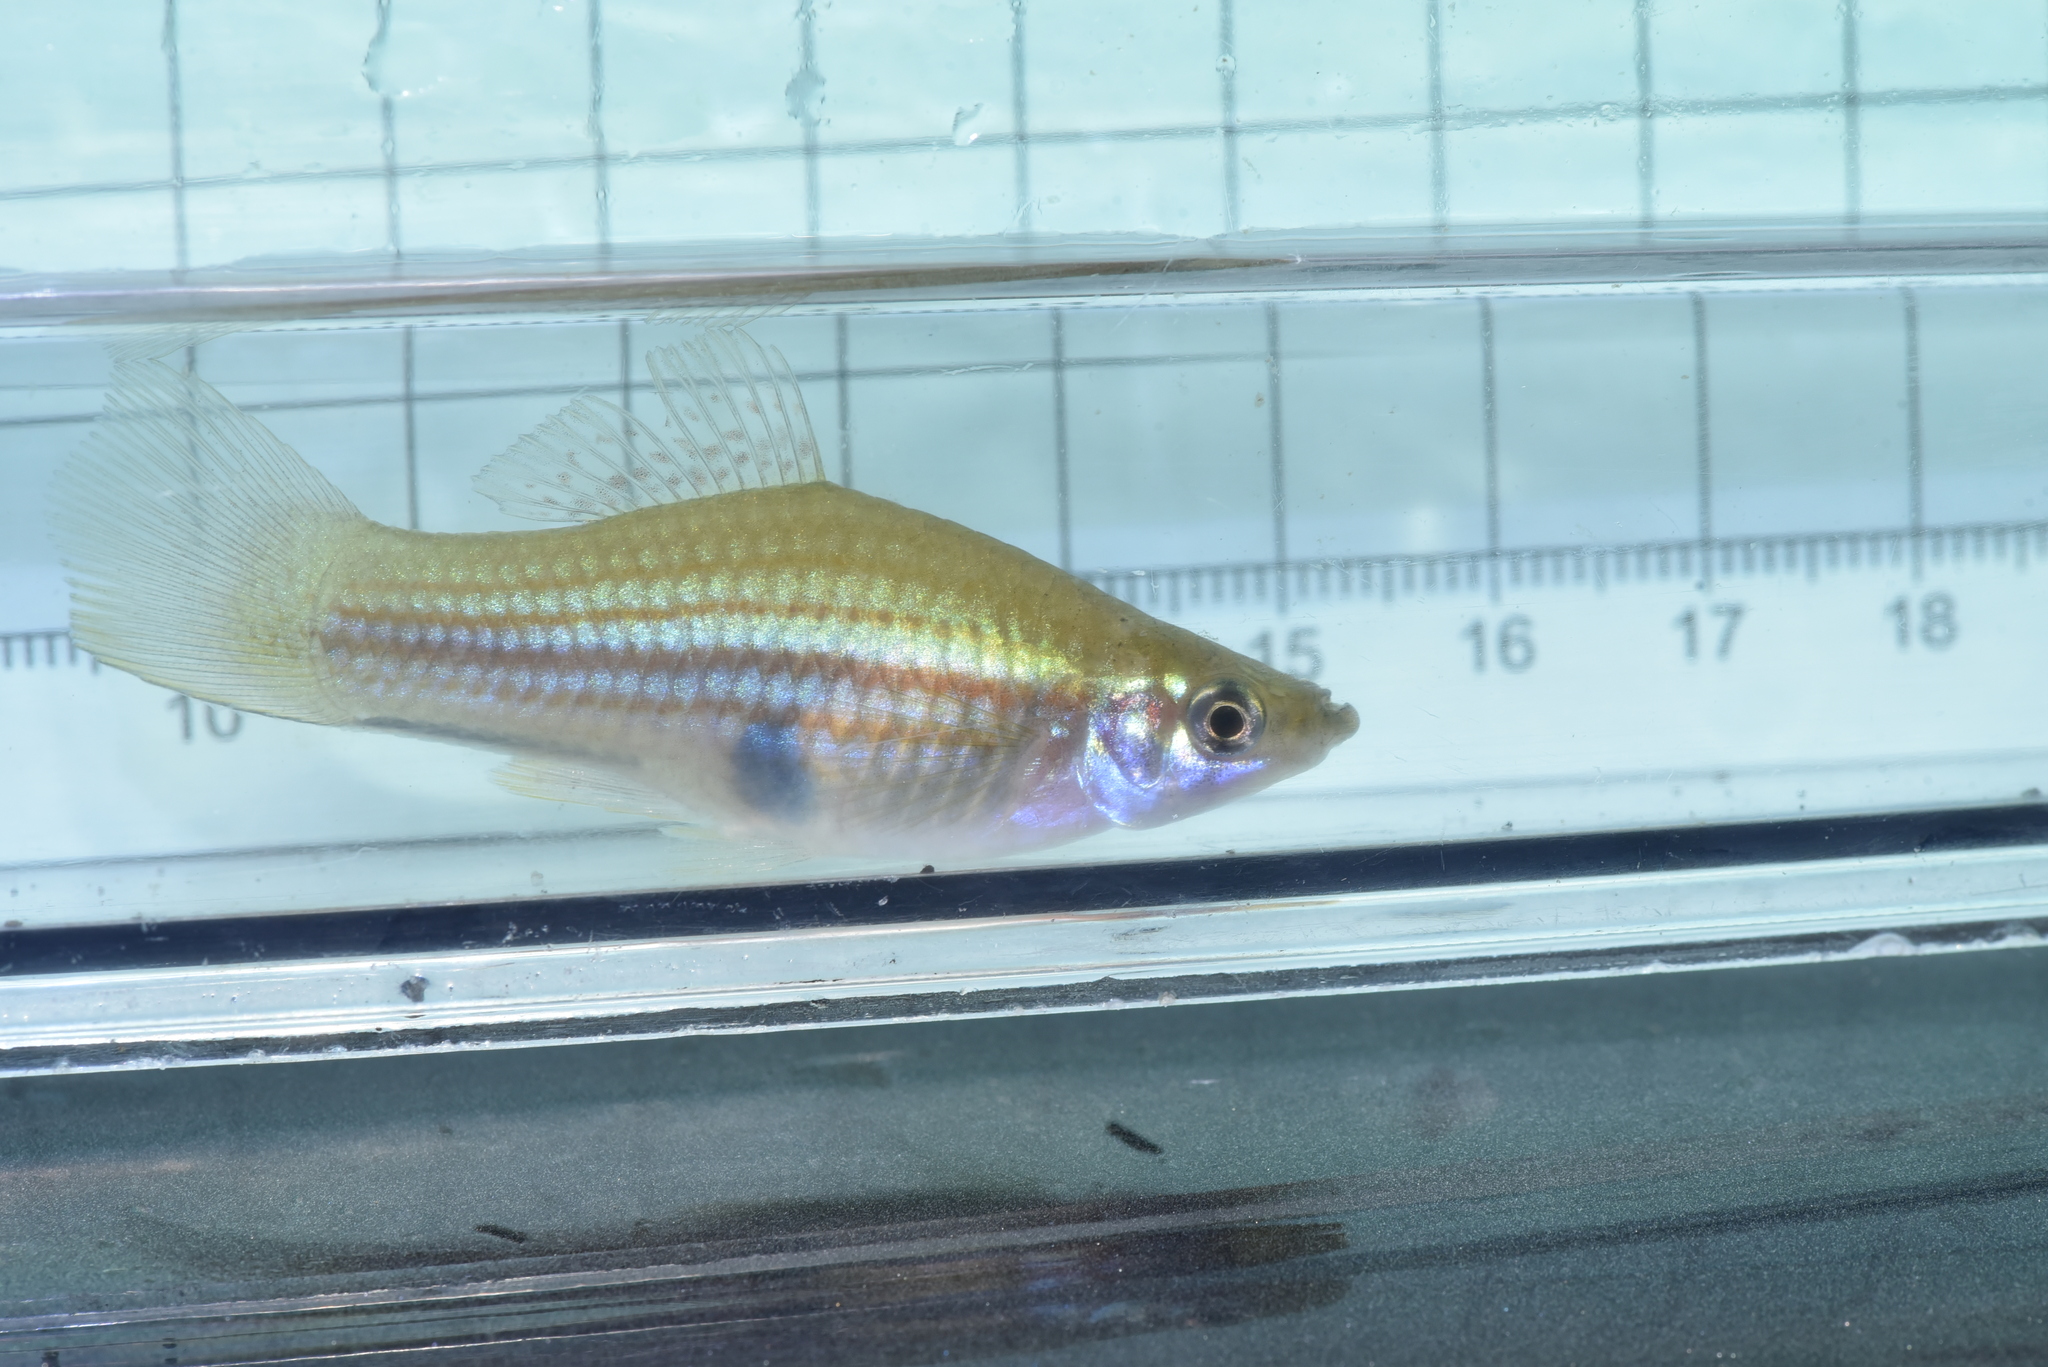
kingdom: Animalia
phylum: Chordata
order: Cyprinodontiformes
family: Poeciliidae
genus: Xiphophorus
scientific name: Xiphophorus hellerii
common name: Green swordtail
